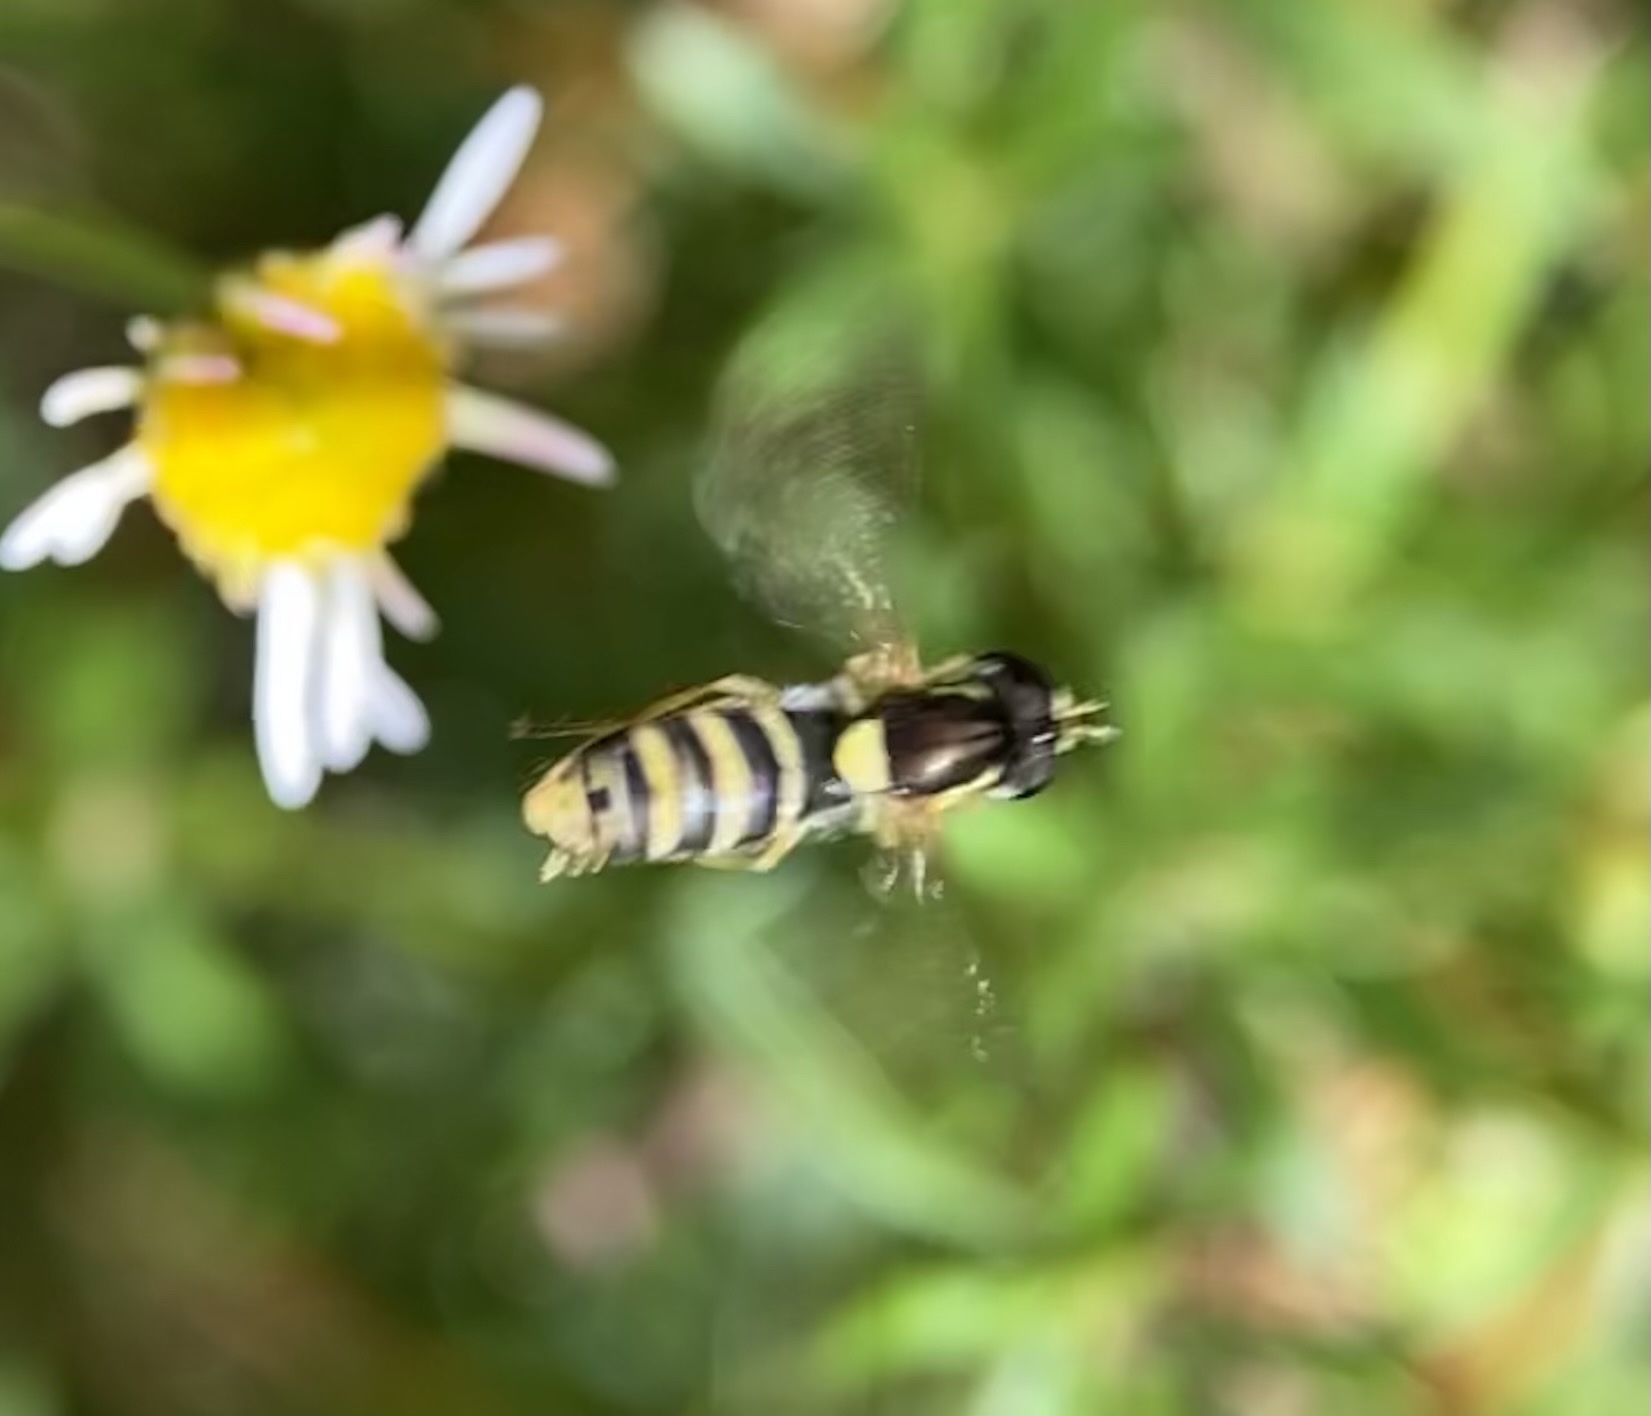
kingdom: Animalia
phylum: Arthropoda
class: Insecta
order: Diptera
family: Syrphidae
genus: Sphaerophoria
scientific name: Sphaerophoria sulphuripes
